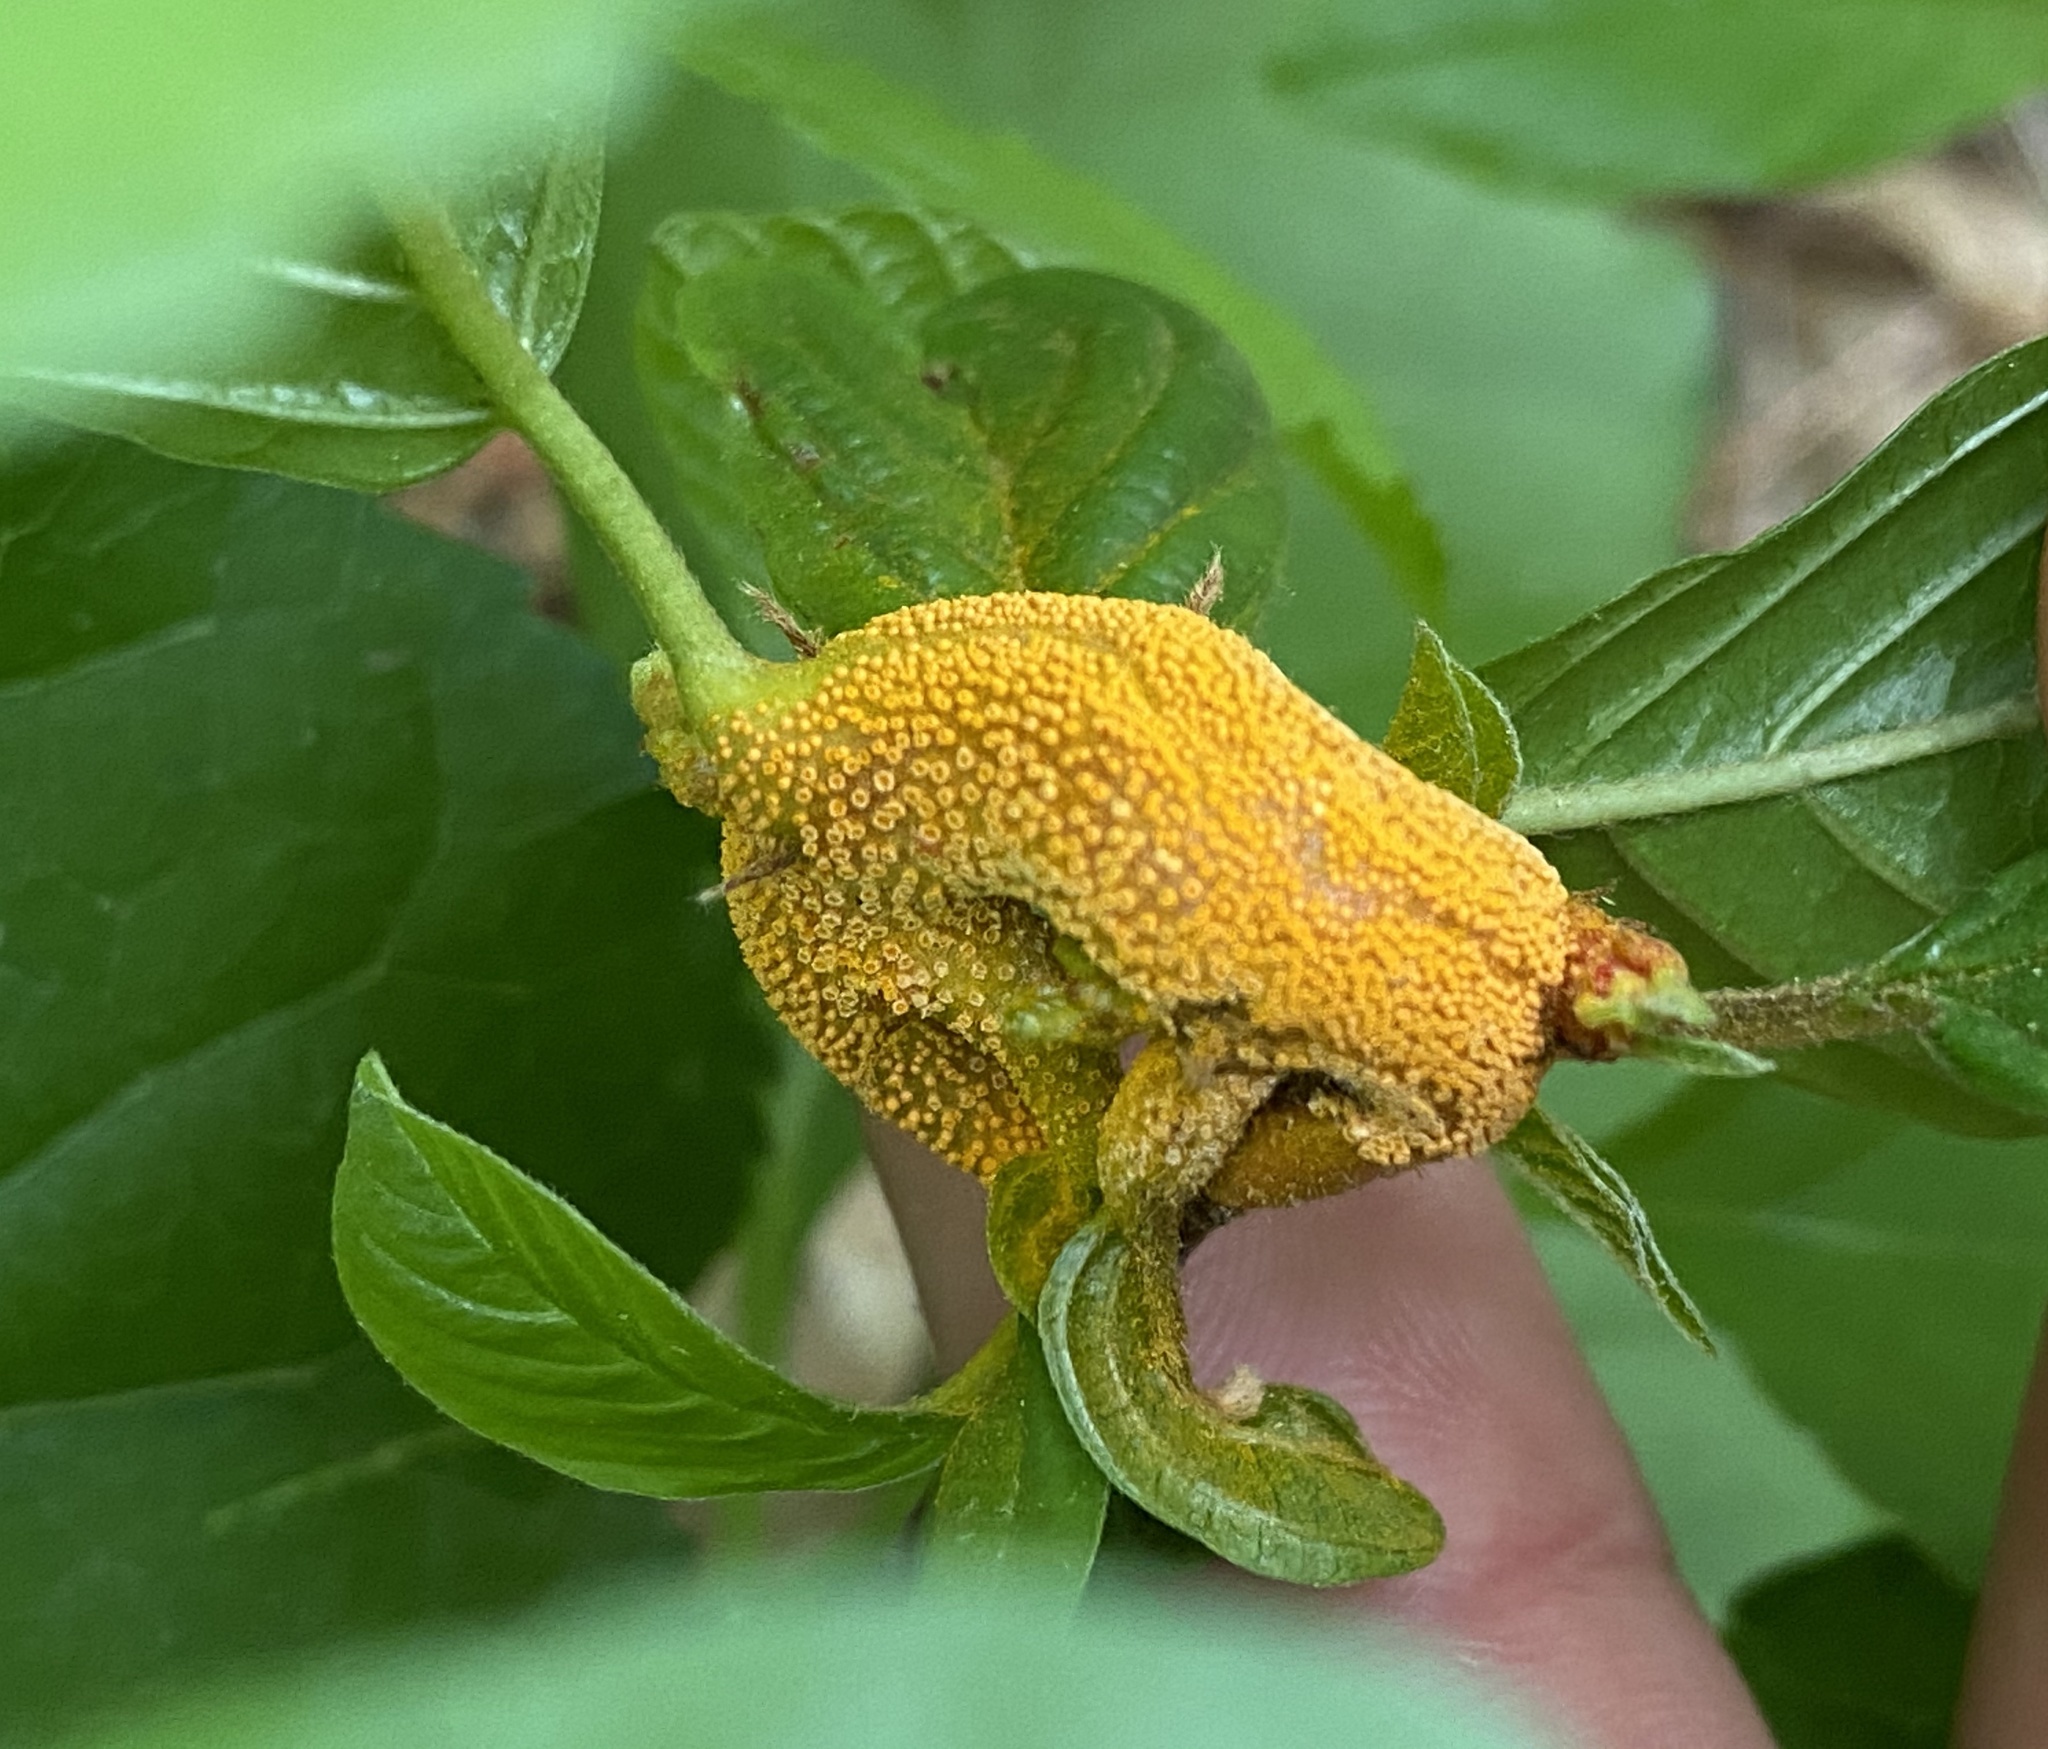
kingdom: Fungi
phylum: Basidiomycota
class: Pucciniomycetes
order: Pucciniales
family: Pucciniaceae
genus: Puccinia
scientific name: Puccinia coronata
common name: Crown rust
